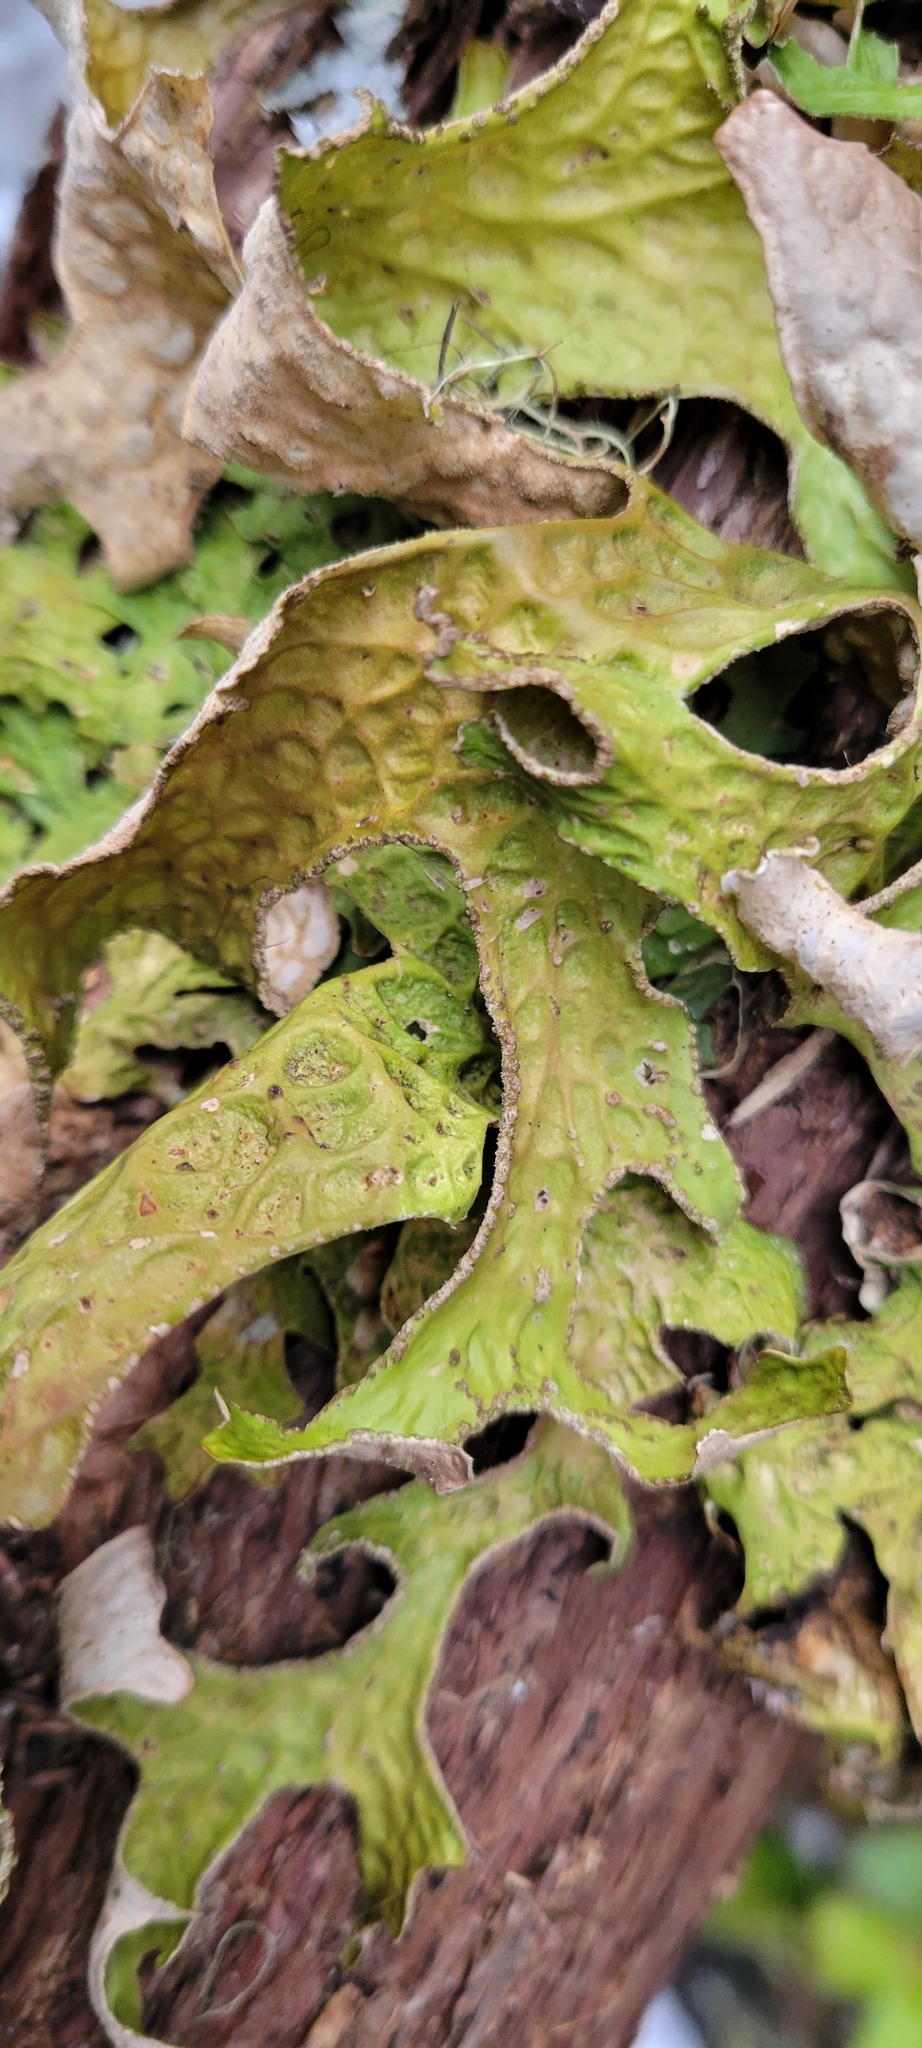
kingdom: Fungi
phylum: Ascomycota
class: Lecanoromycetes
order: Peltigerales
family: Lobariaceae
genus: Lobaria
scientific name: Lobaria pulmonaria
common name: Lungwort
